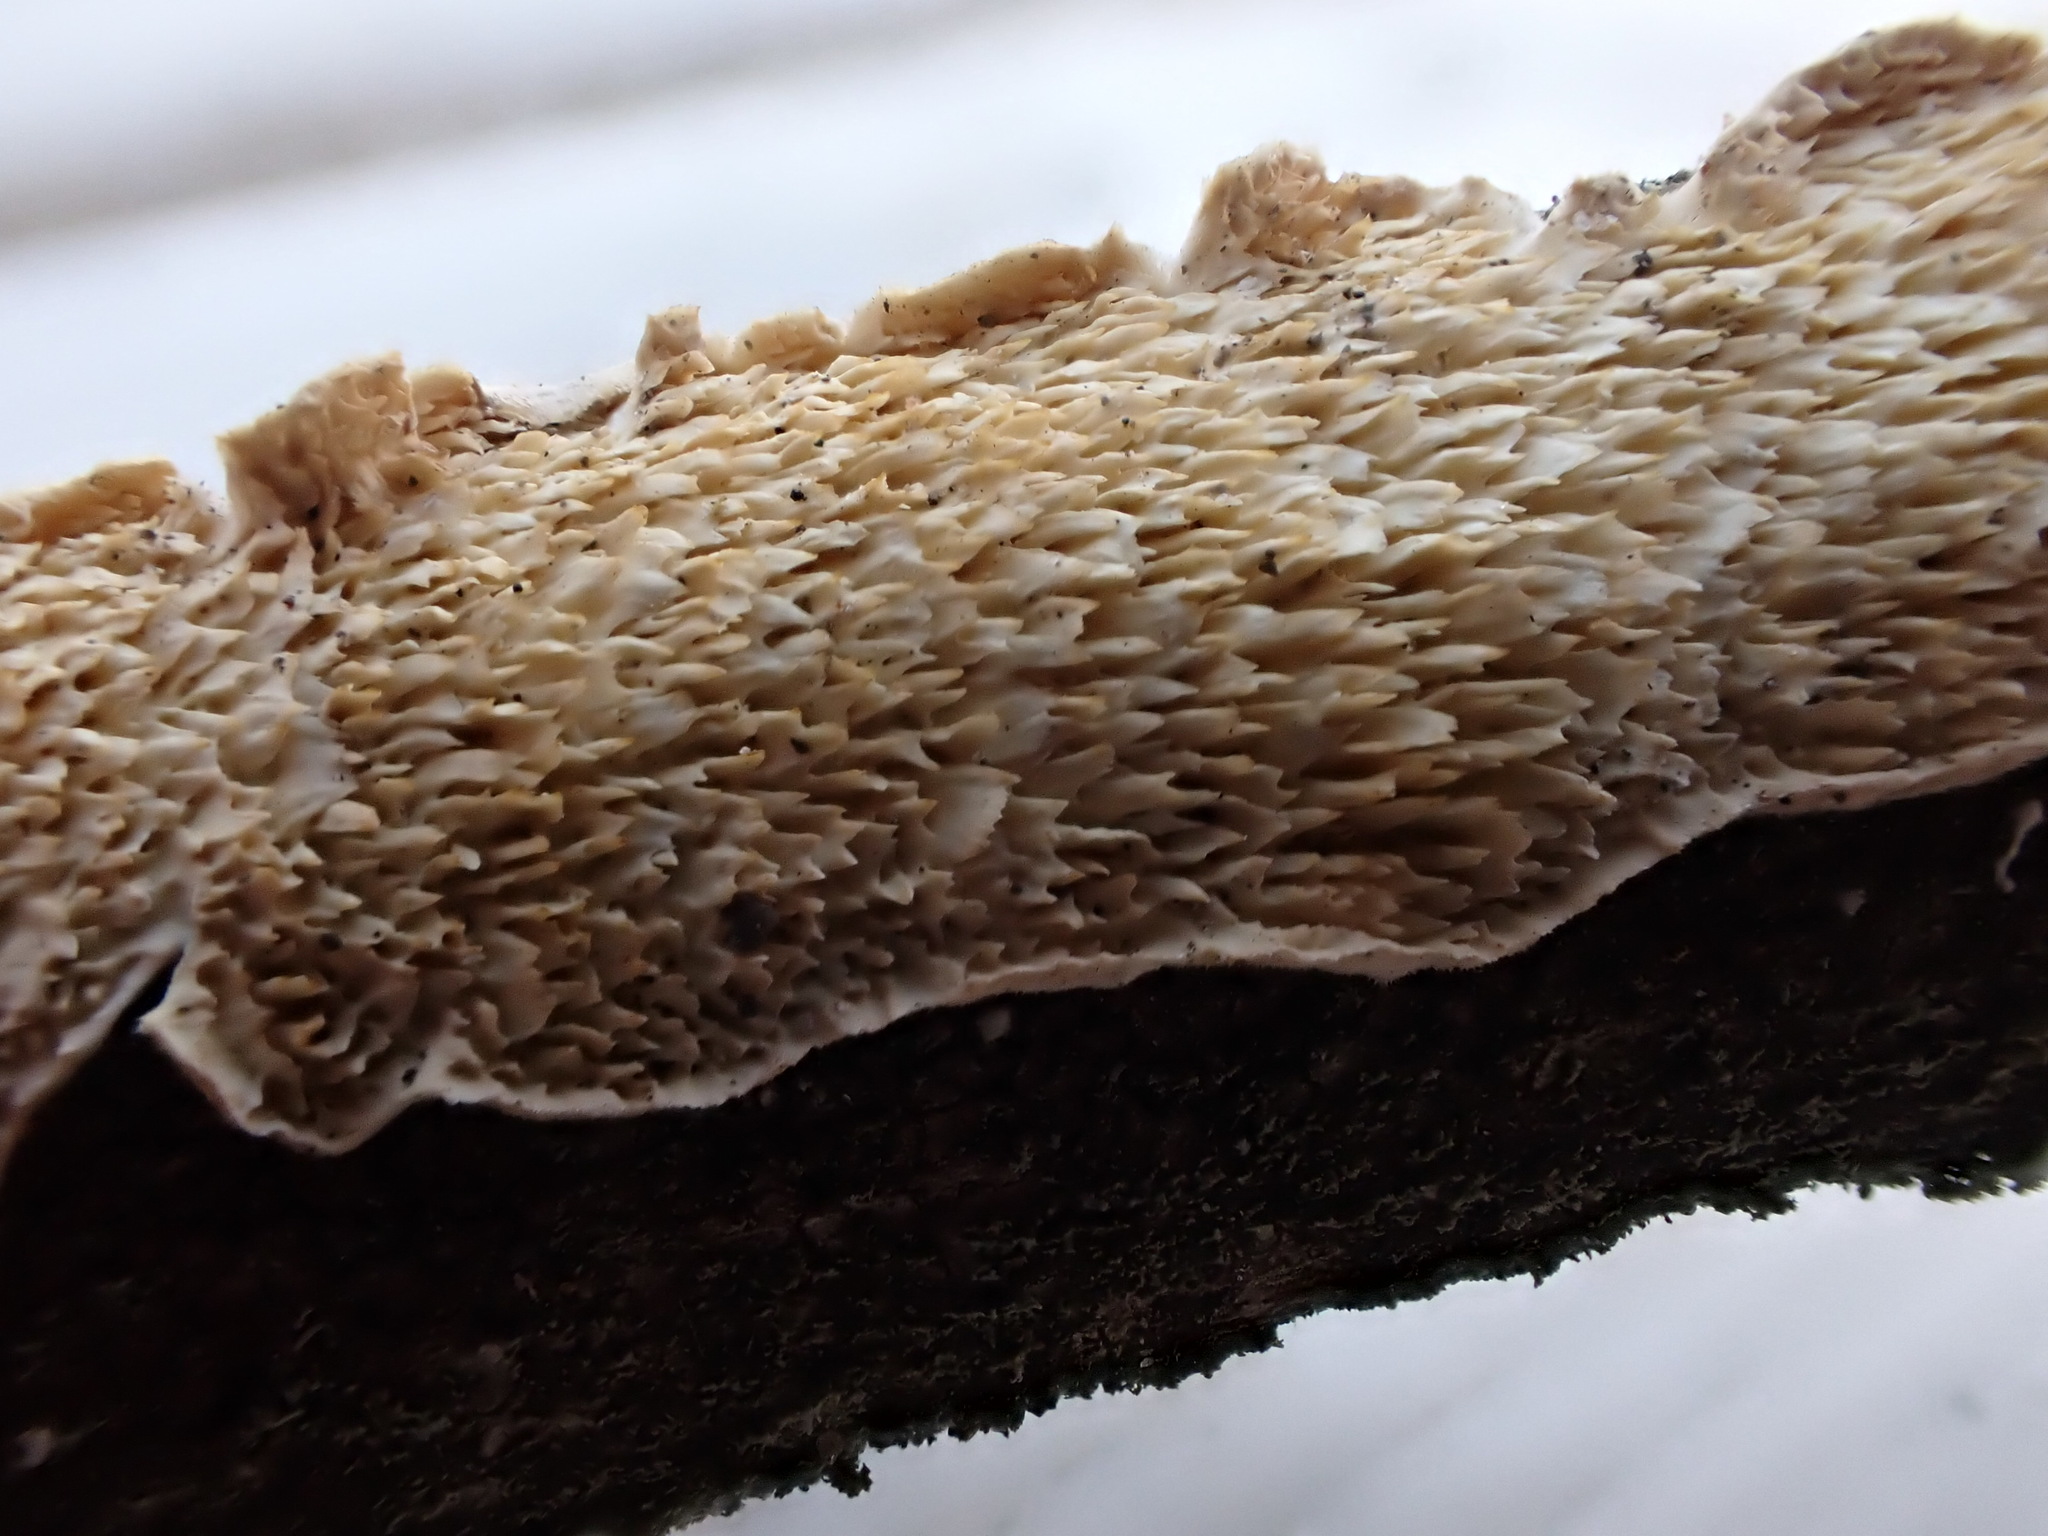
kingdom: Fungi
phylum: Basidiomycota
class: Agaricomycetes
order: Polyporales
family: Irpicaceae
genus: Irpex
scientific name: Irpex lacteus
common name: Milk-white toothed polypore
